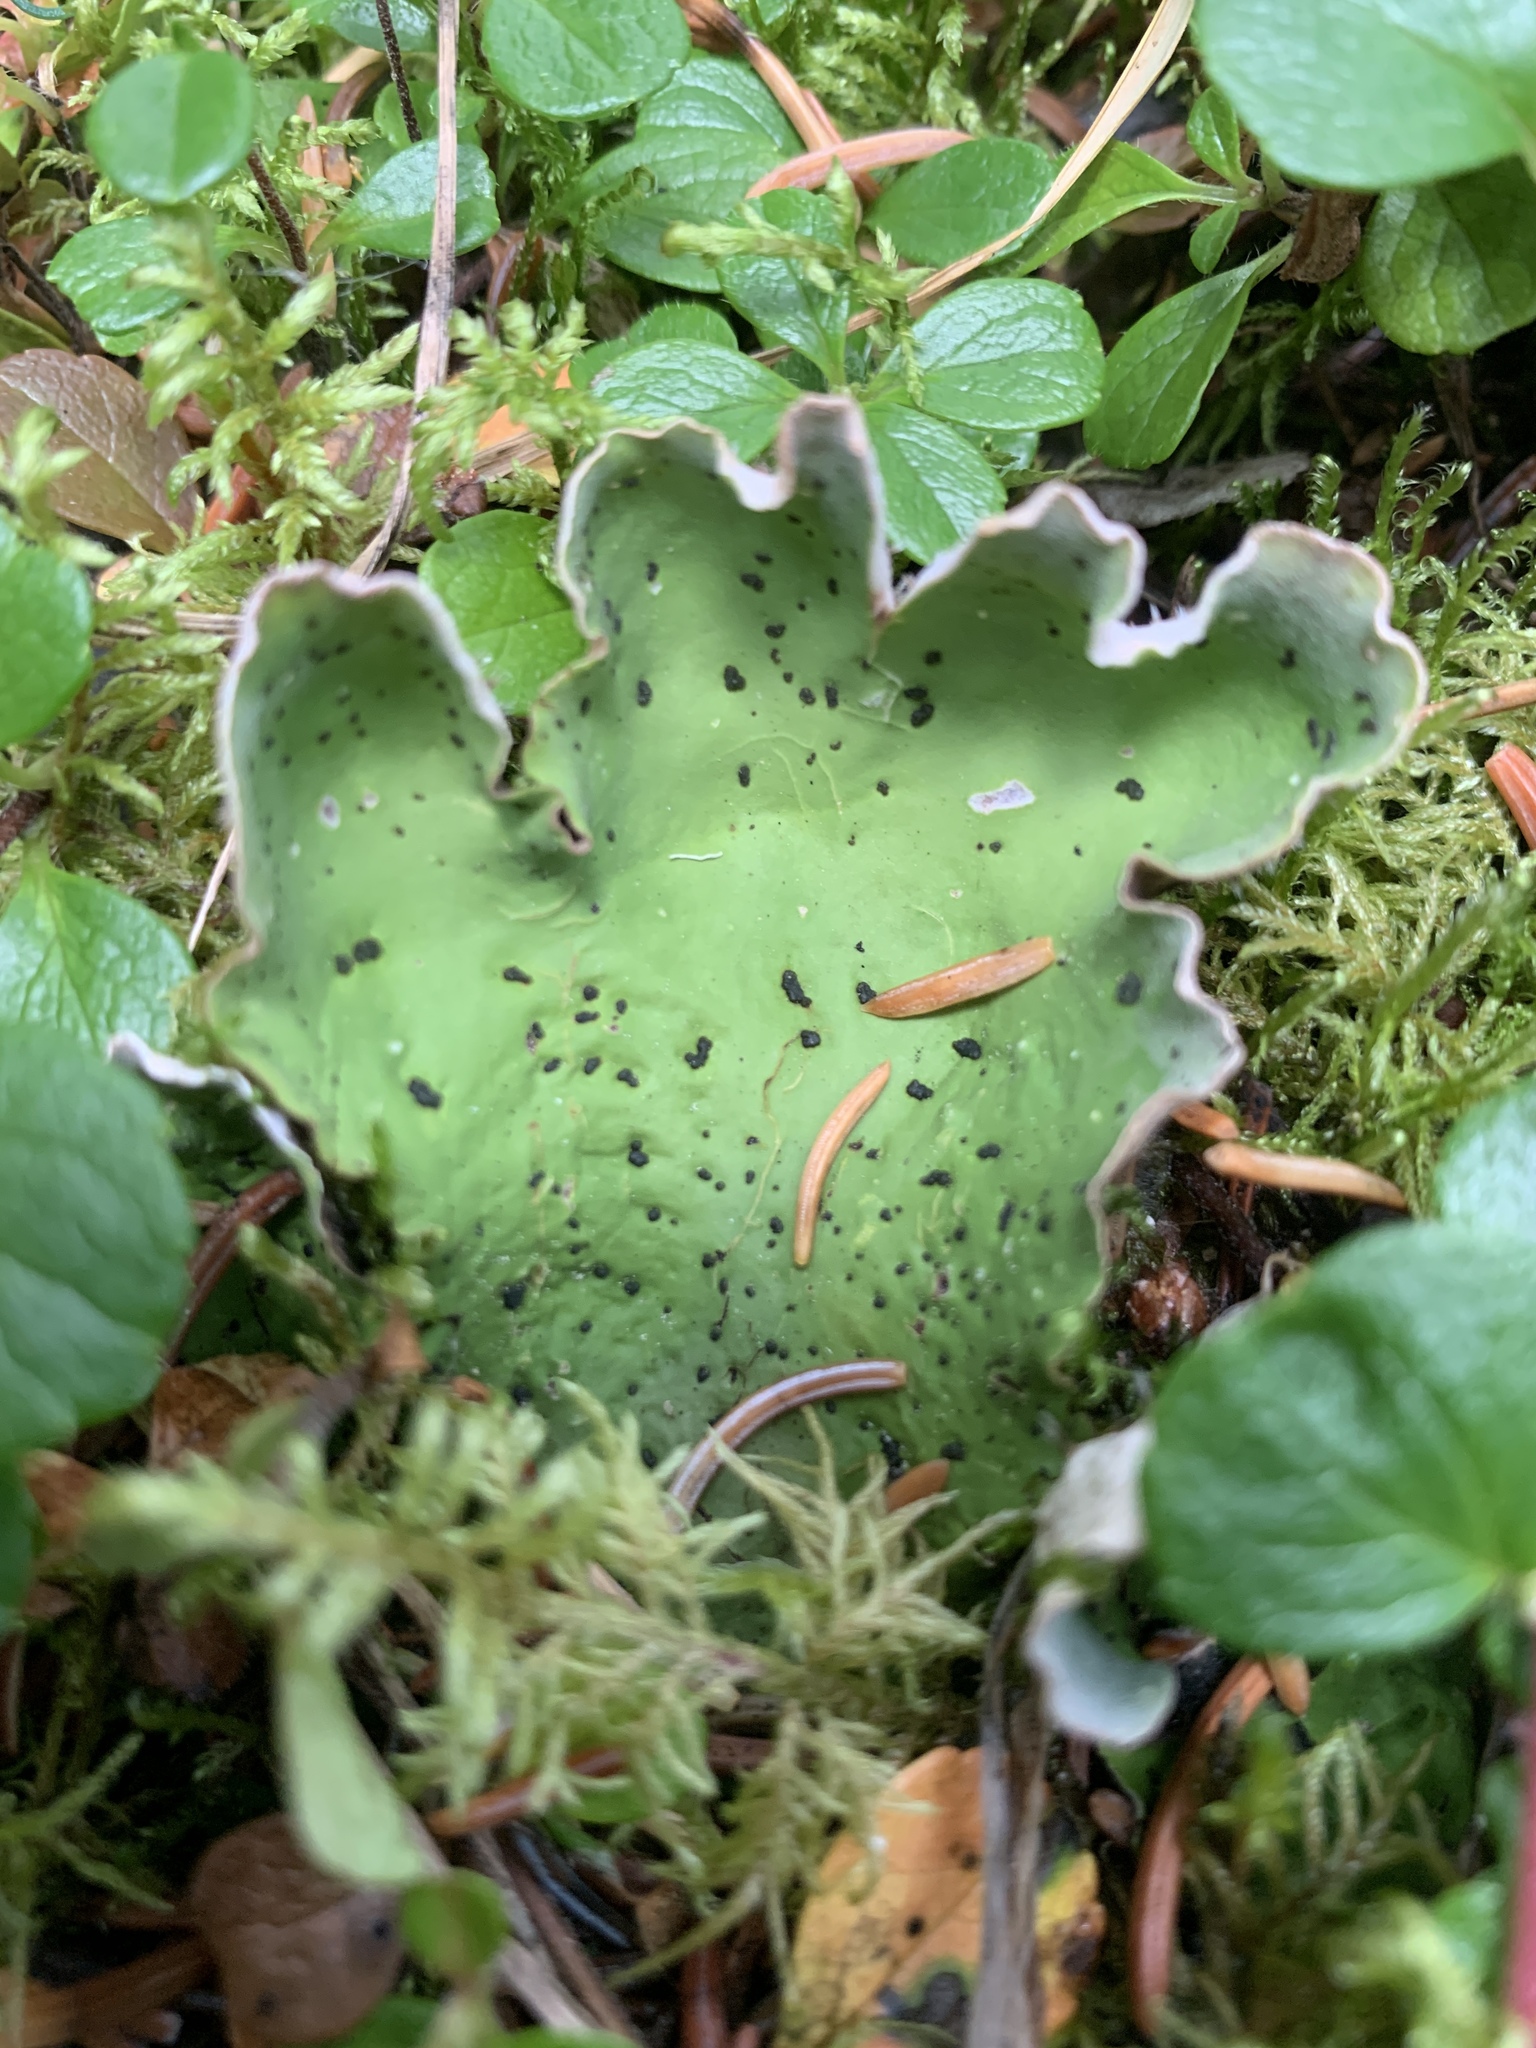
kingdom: Fungi
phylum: Ascomycota
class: Lecanoromycetes
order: Peltigerales
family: Peltigeraceae
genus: Peltigera
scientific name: Peltigera aphthosa
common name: Common freckle pelt lichen
